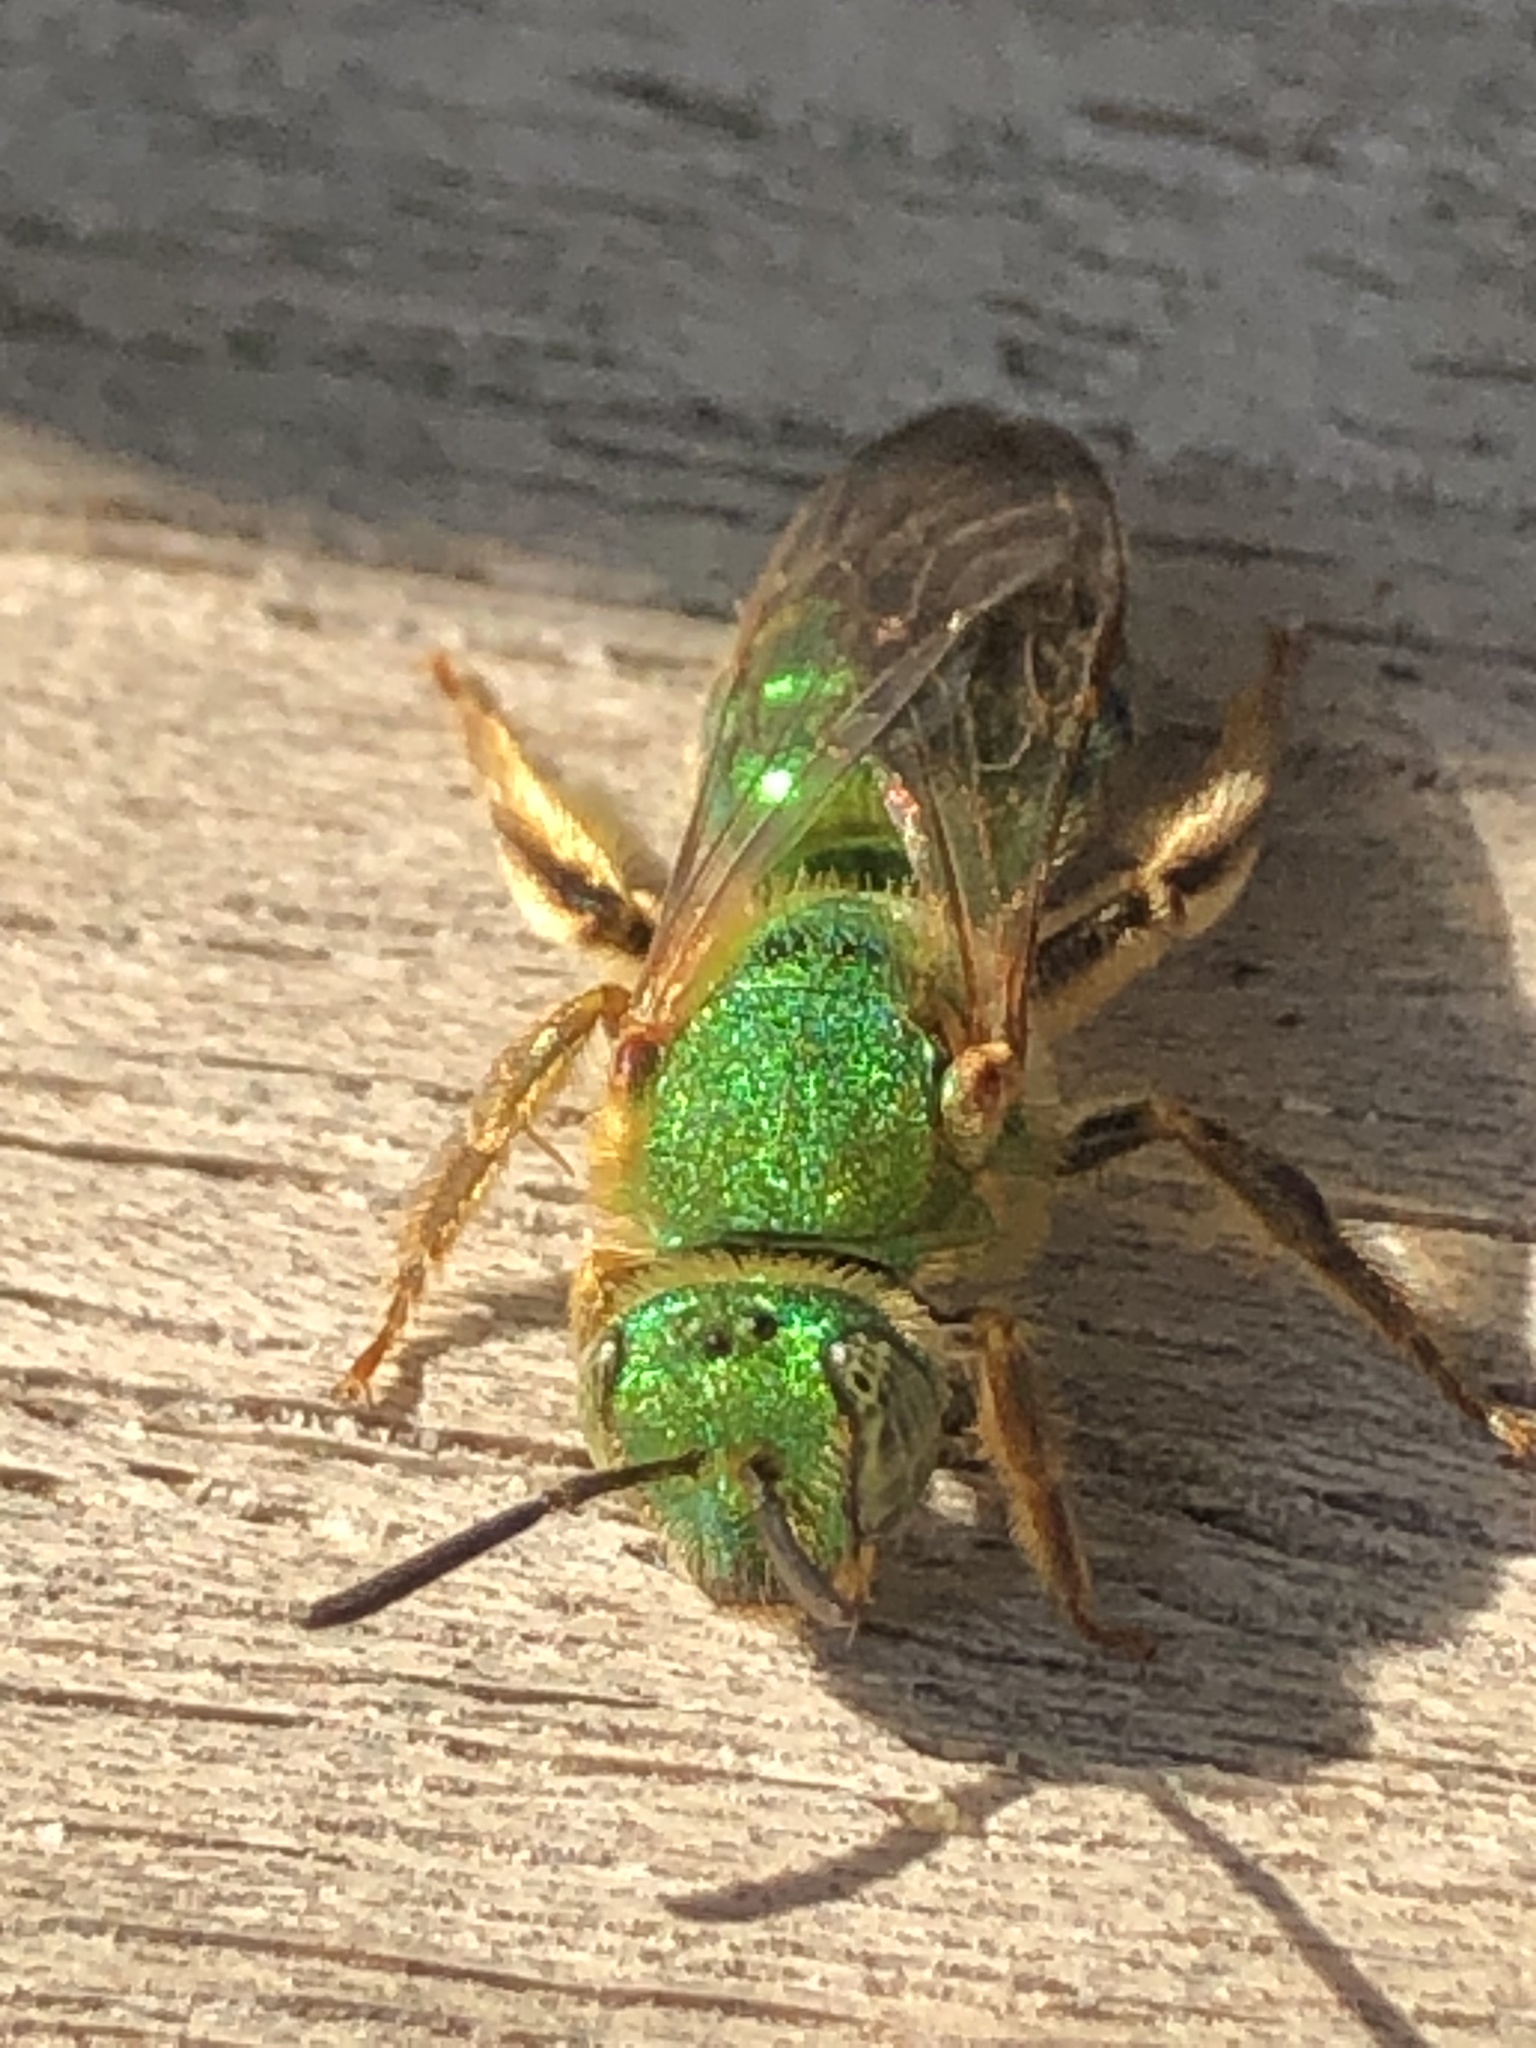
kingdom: Animalia
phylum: Arthropoda
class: Insecta
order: Hymenoptera
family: Halictidae
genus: Agapostemon
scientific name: Agapostemon sericeus
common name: Silky striped sweat bee
